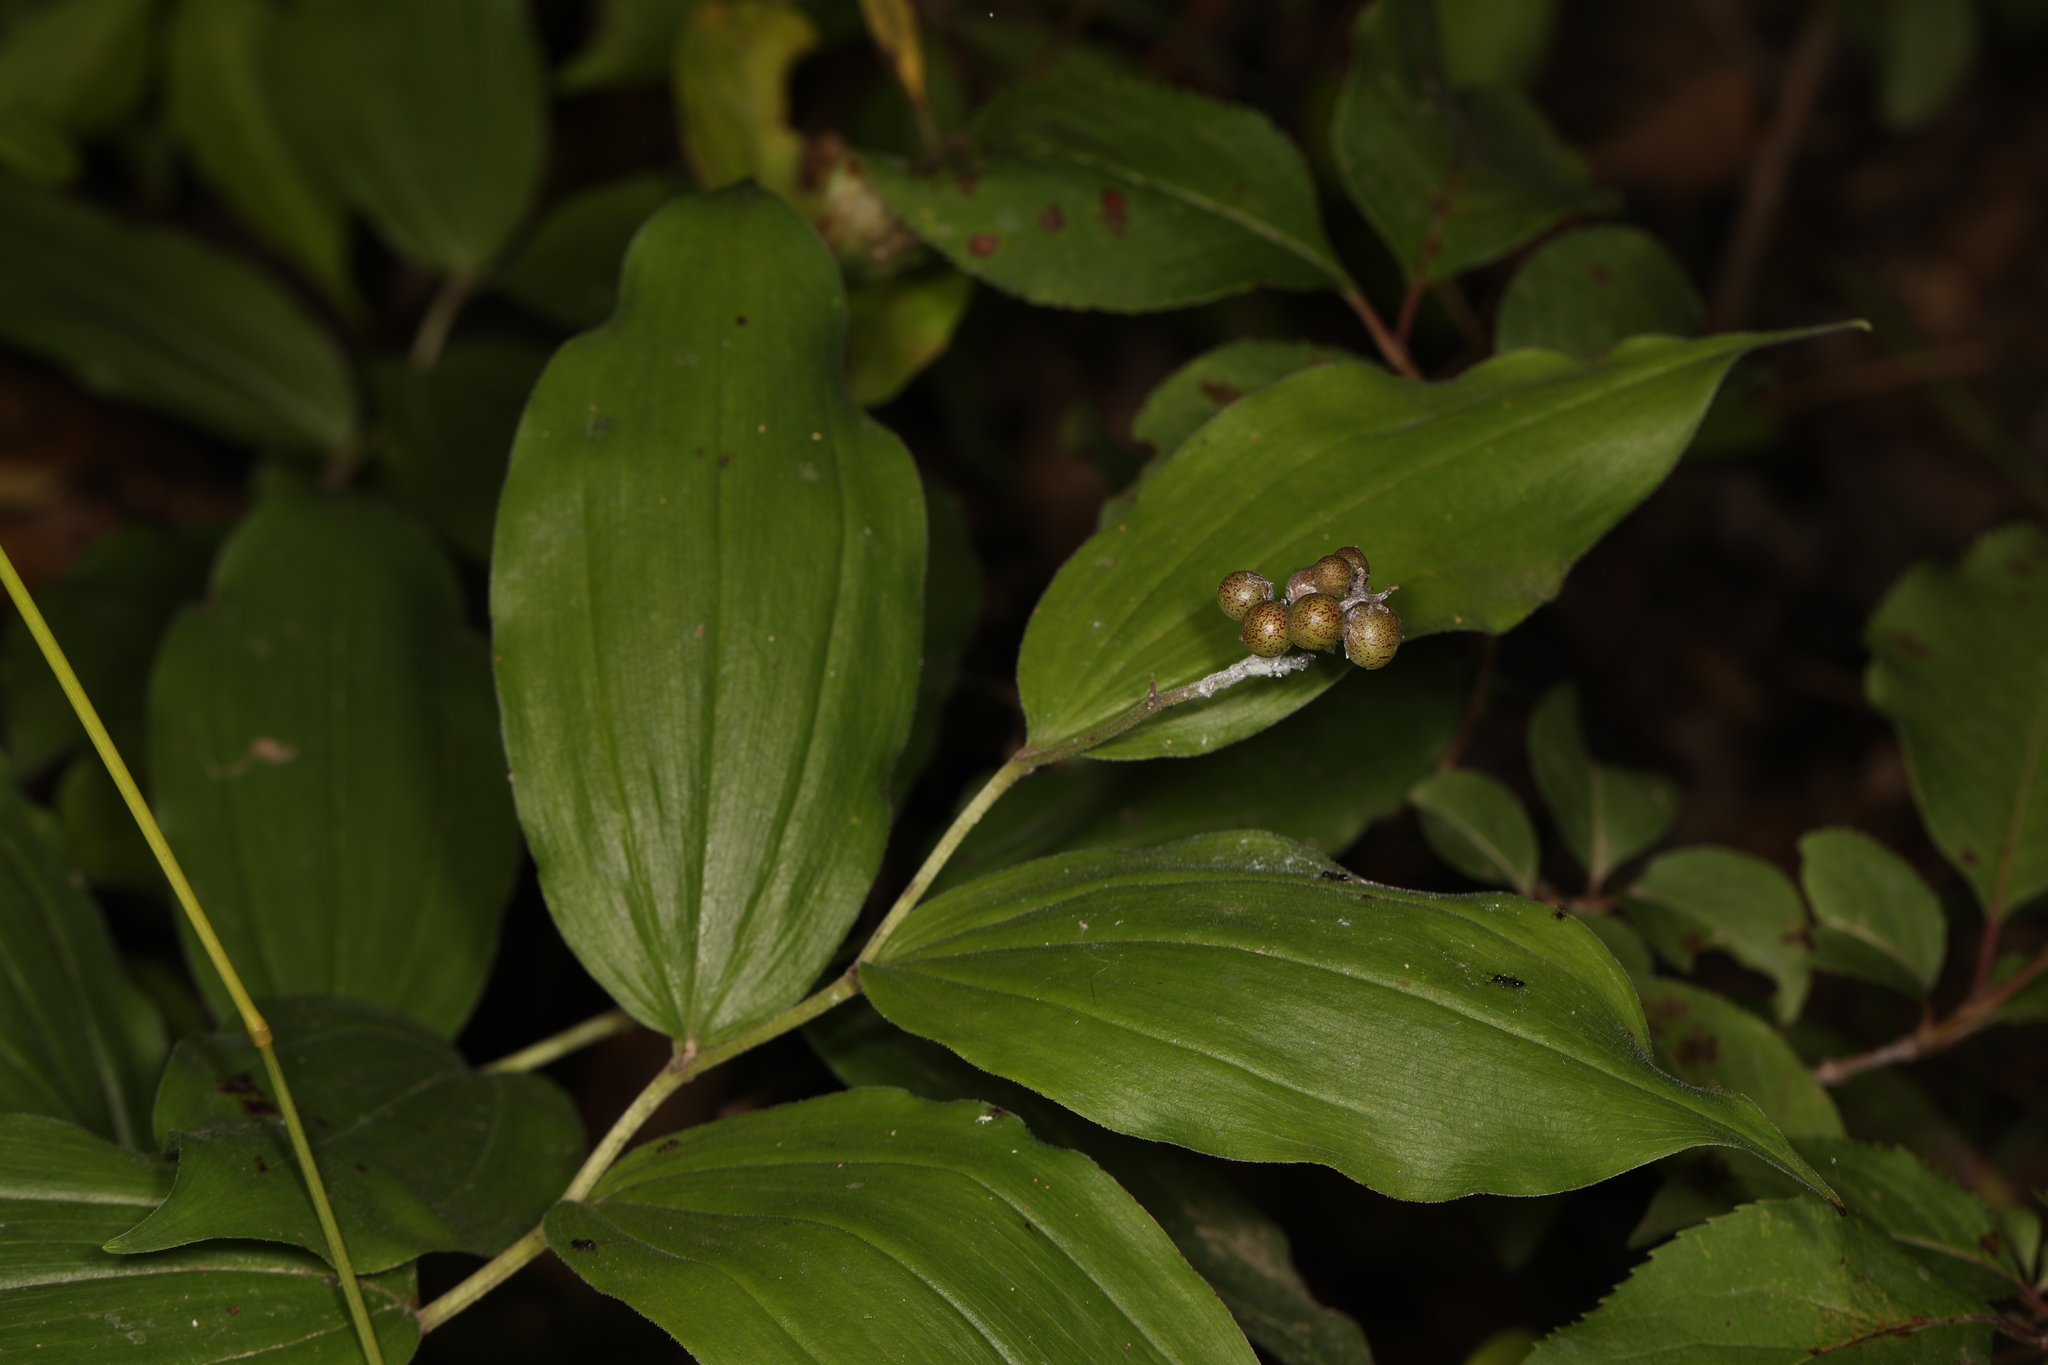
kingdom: Plantae
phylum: Tracheophyta
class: Liliopsida
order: Asparagales
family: Asparagaceae
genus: Maianthemum
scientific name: Maianthemum racemosum
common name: False spikenard
